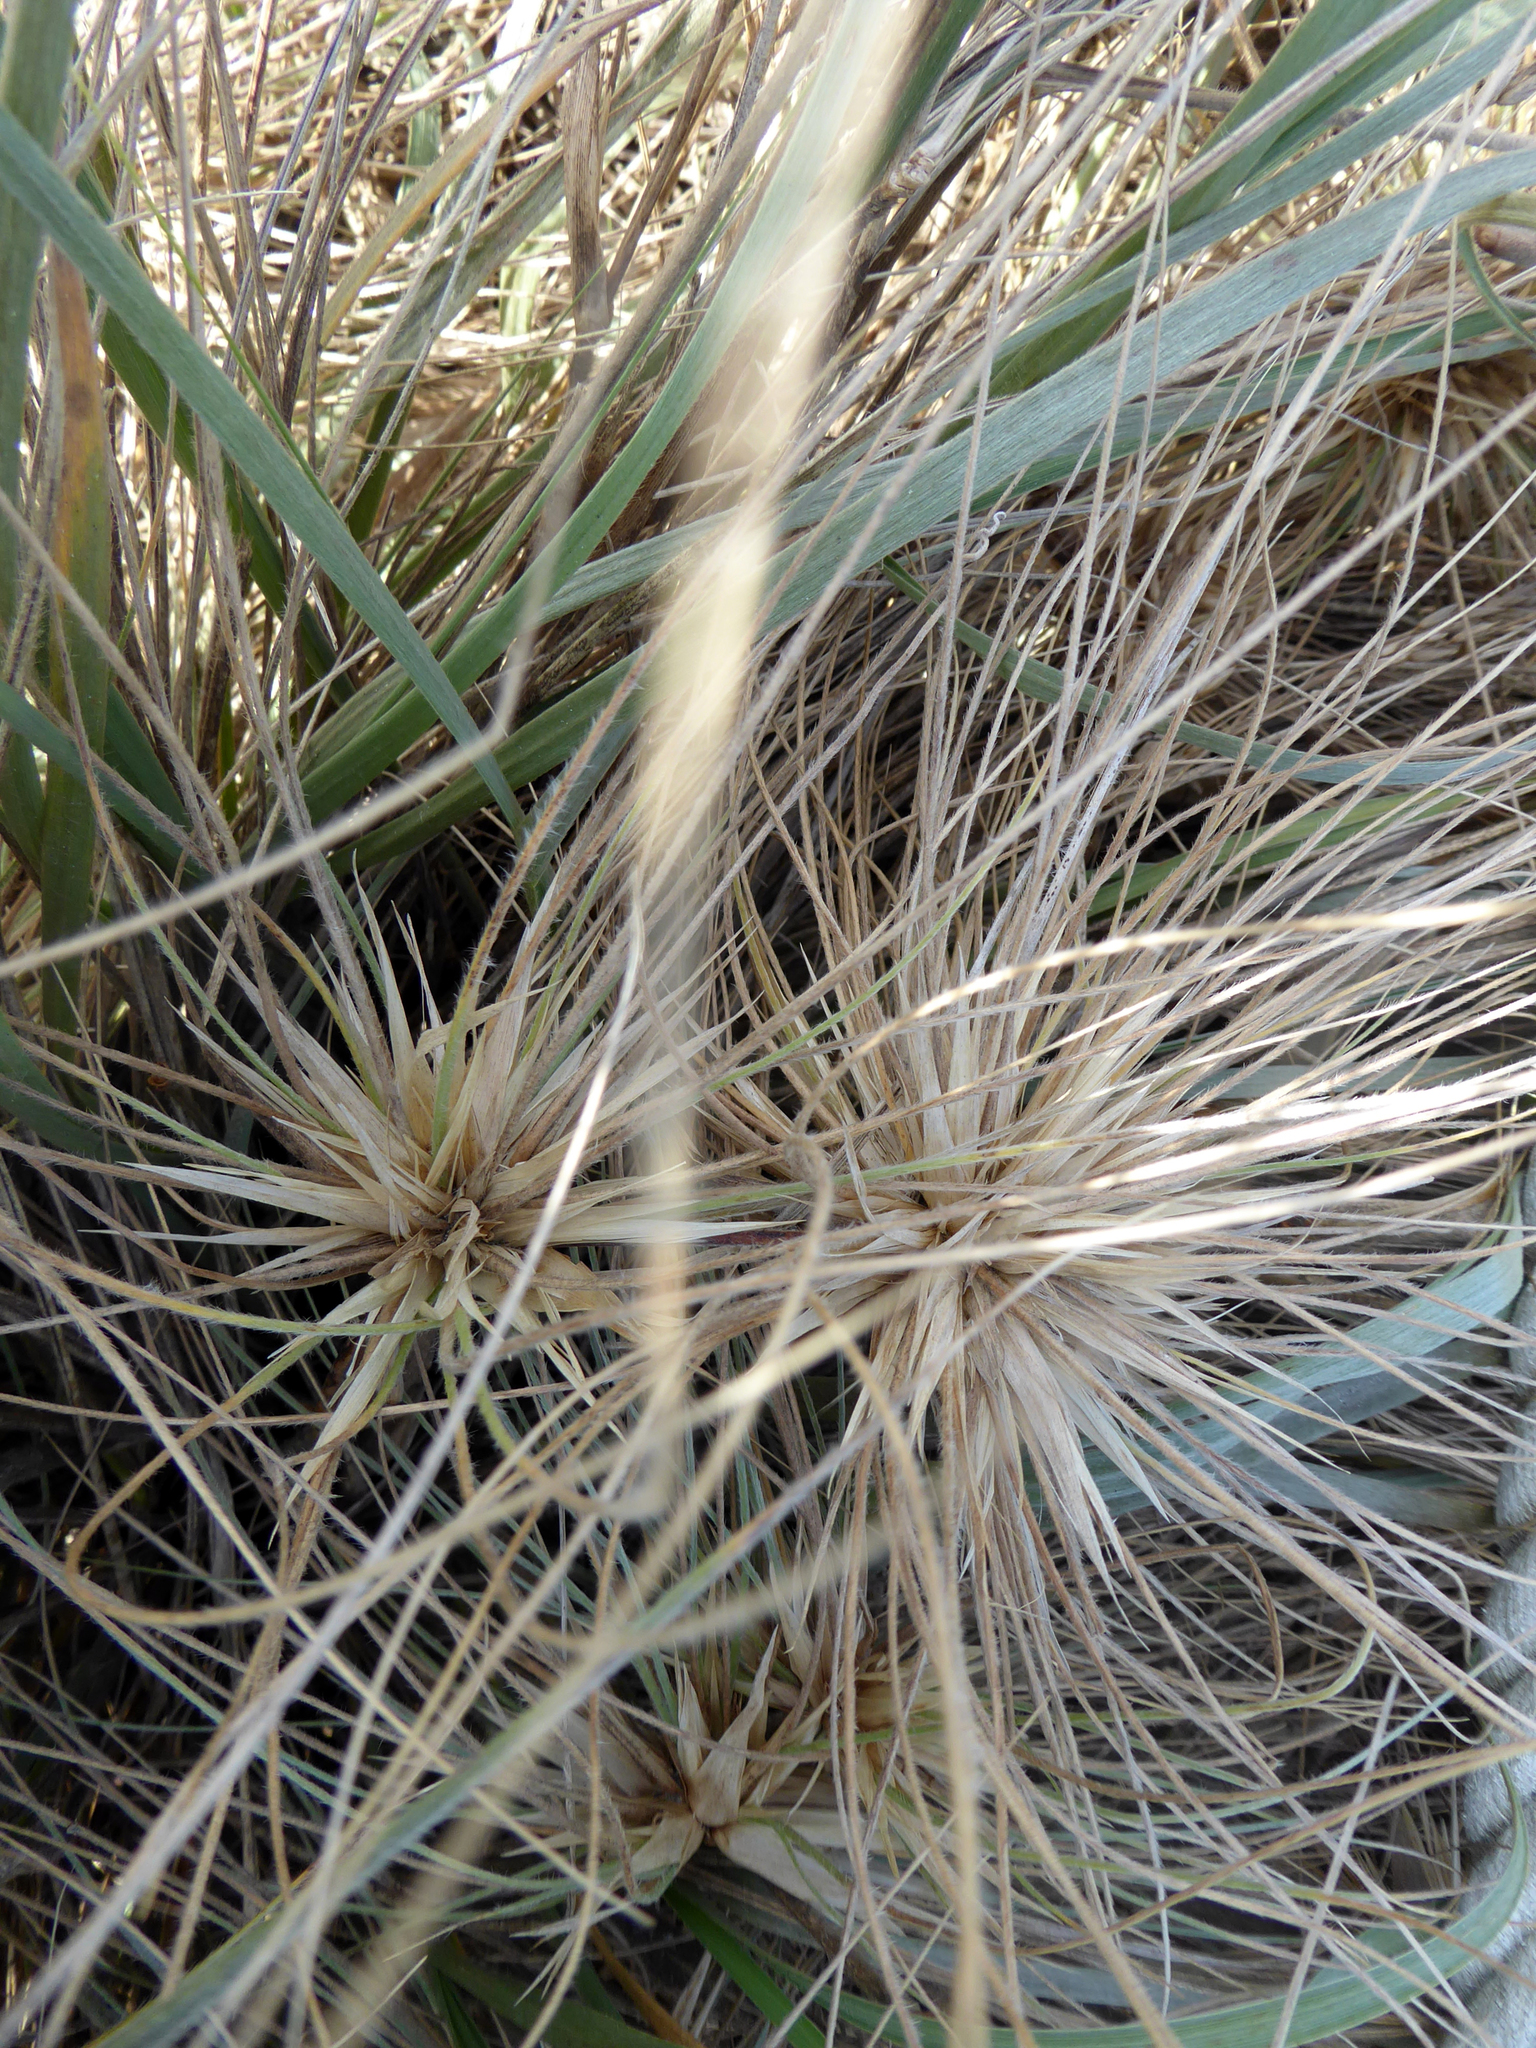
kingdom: Plantae
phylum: Tracheophyta
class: Liliopsida
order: Poales
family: Poaceae
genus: Spinifex
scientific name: Spinifex sericeus
